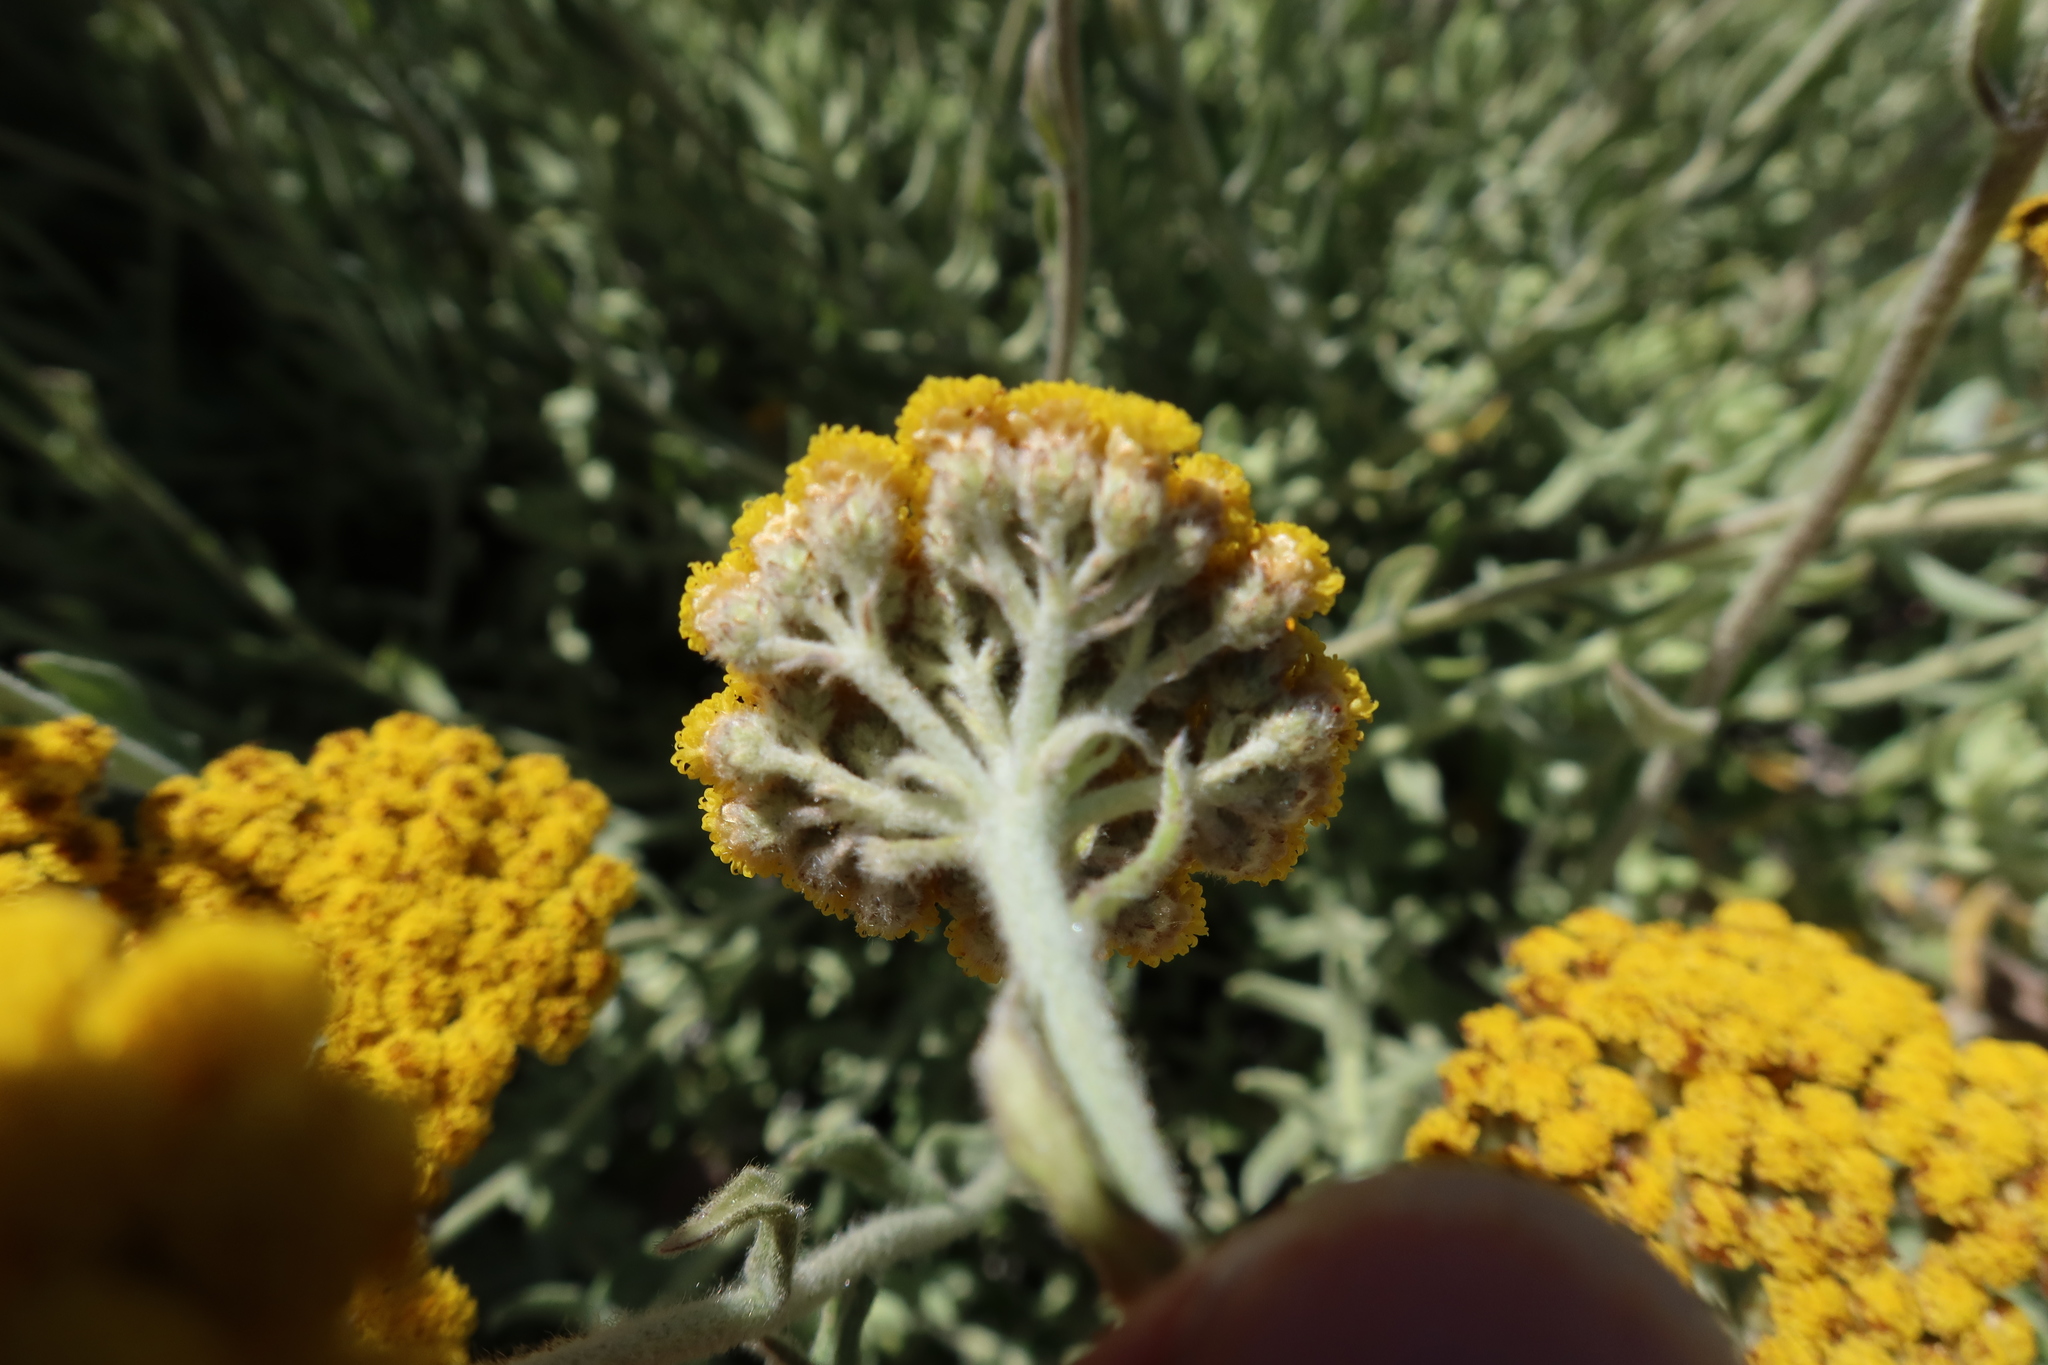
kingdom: Plantae
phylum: Tracheophyta
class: Magnoliopsida
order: Asterales
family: Asteraceae
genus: Helichrysum
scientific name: Helichrysum dasyanthum
